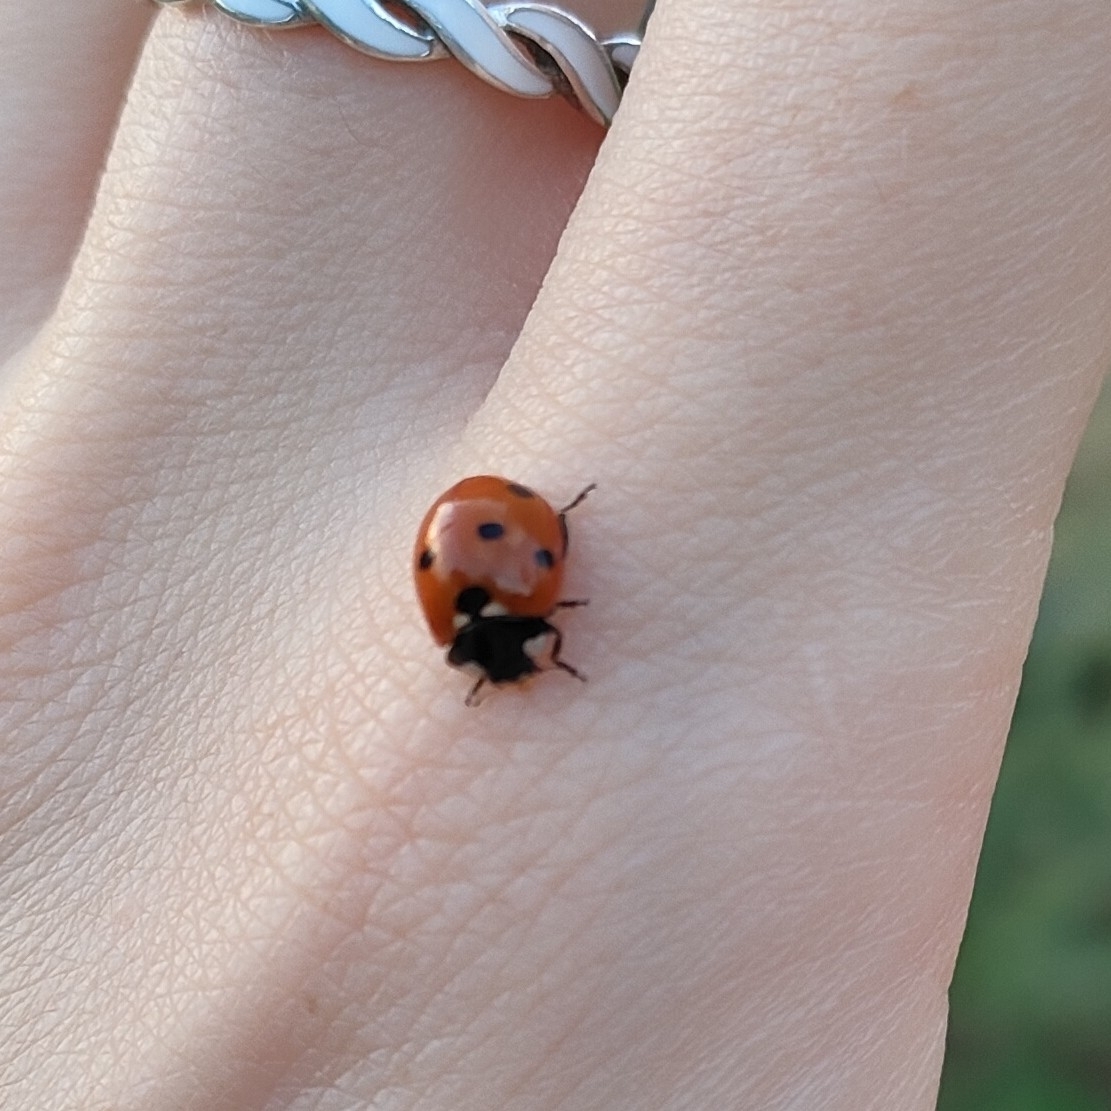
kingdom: Animalia
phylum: Arthropoda
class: Insecta
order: Coleoptera
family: Coccinellidae
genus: Coccinella
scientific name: Coccinella septempunctata
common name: Sevenspotted lady beetle
